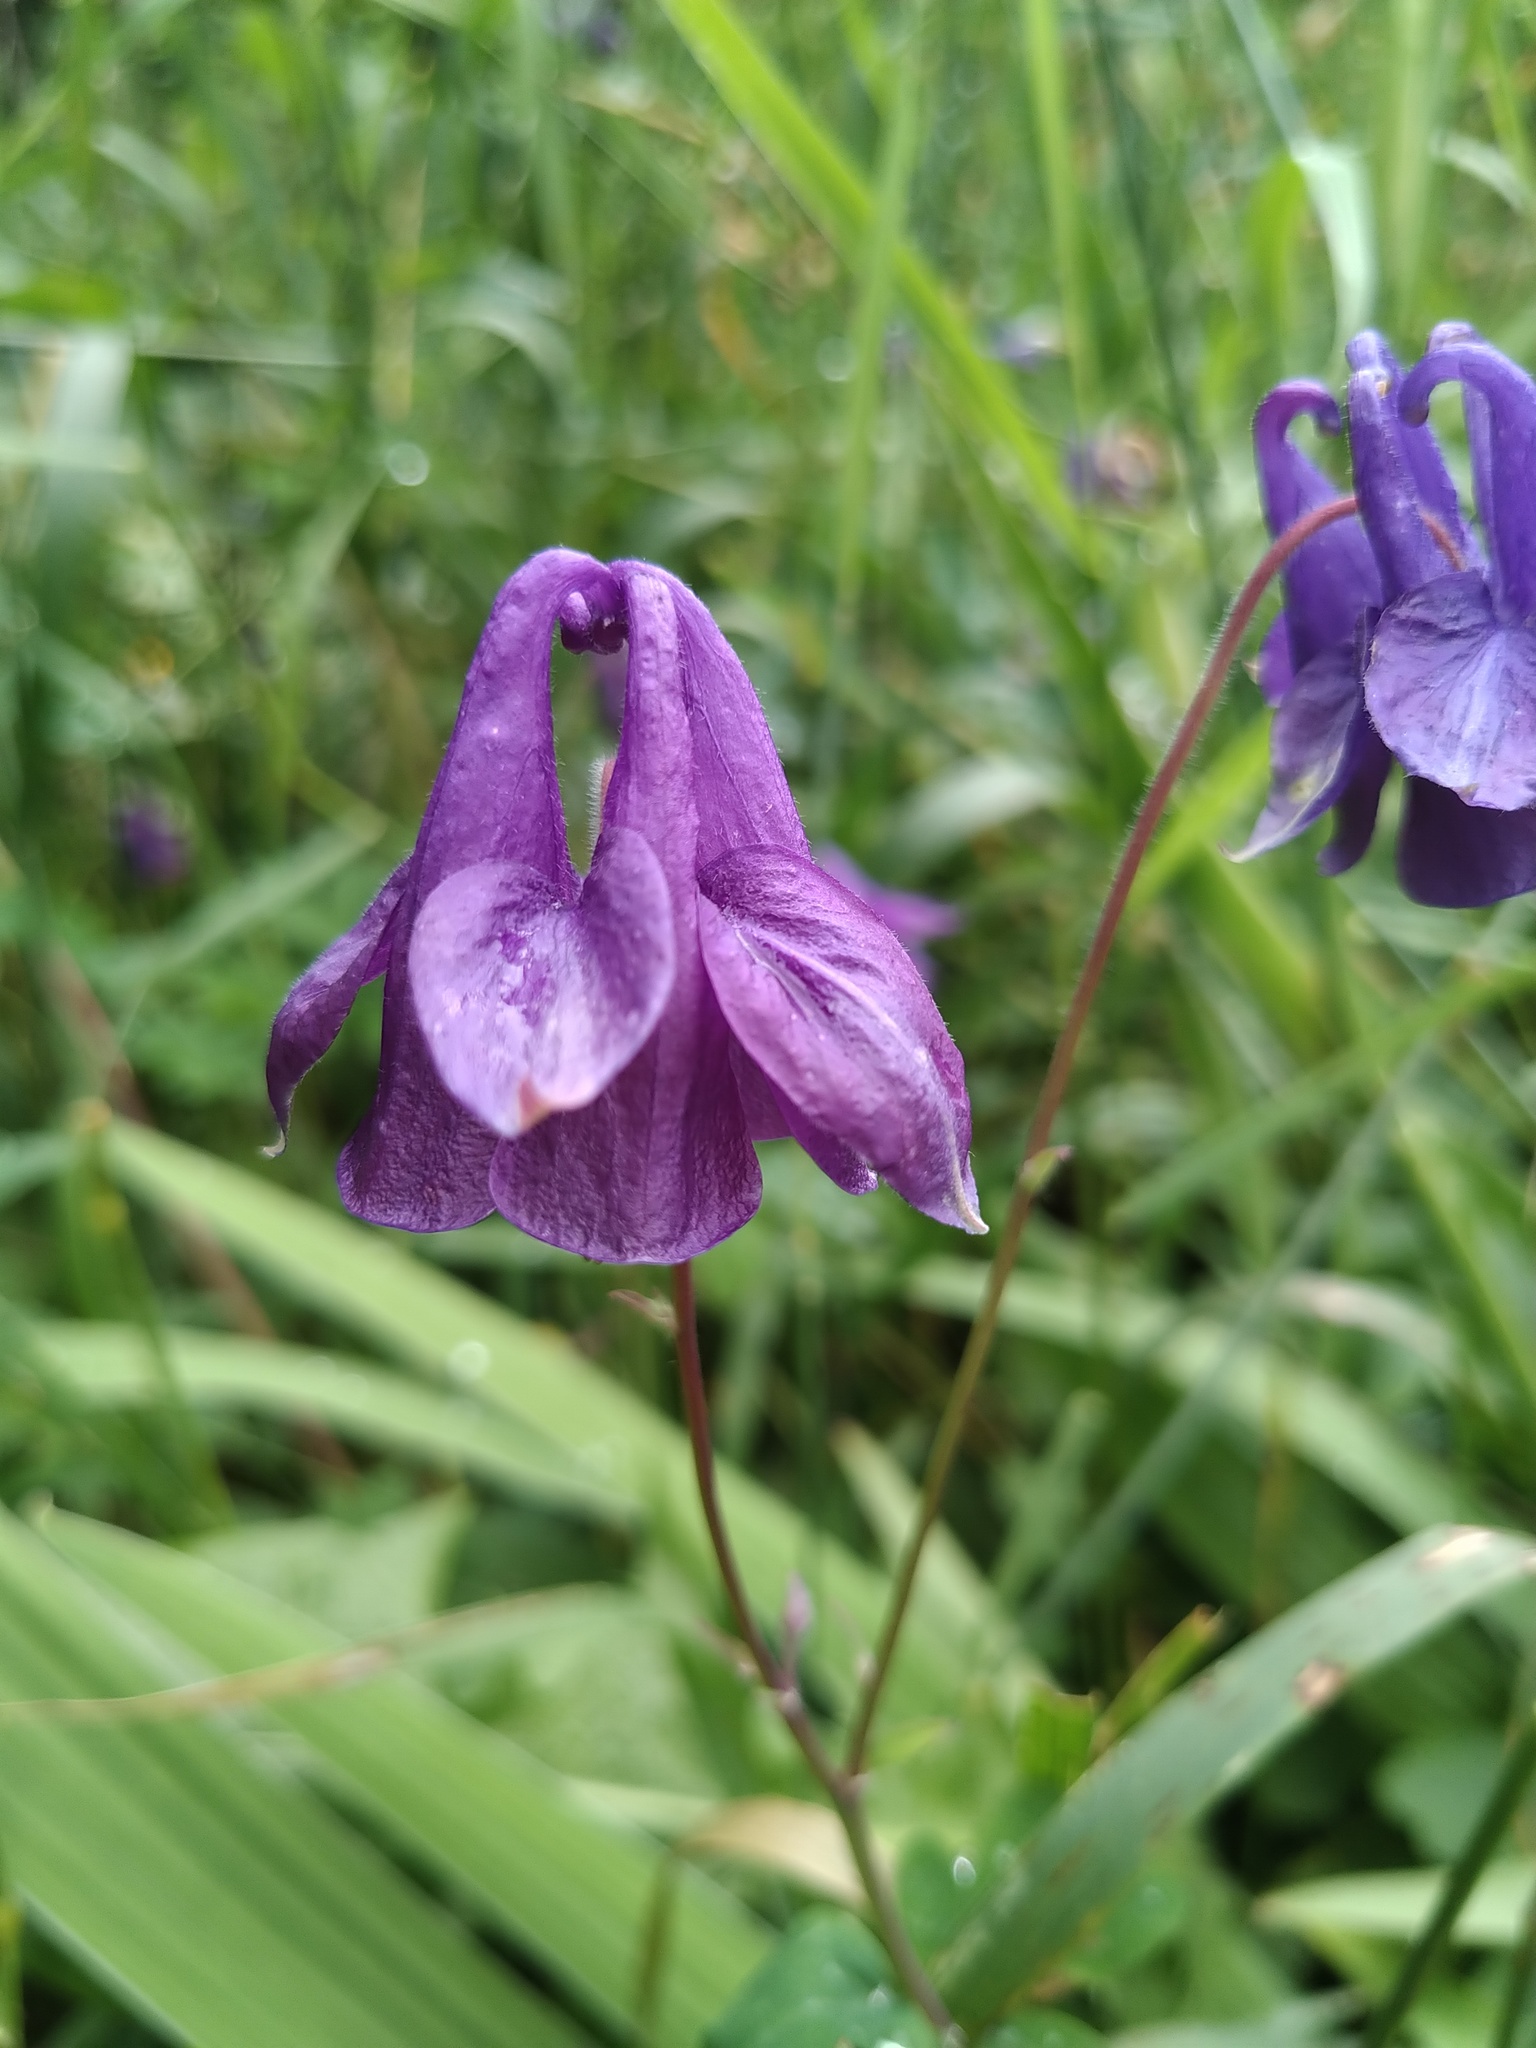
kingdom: Plantae
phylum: Tracheophyta
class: Magnoliopsida
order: Ranunculales
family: Ranunculaceae
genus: Aquilegia
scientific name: Aquilegia vulgaris
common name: Columbine
